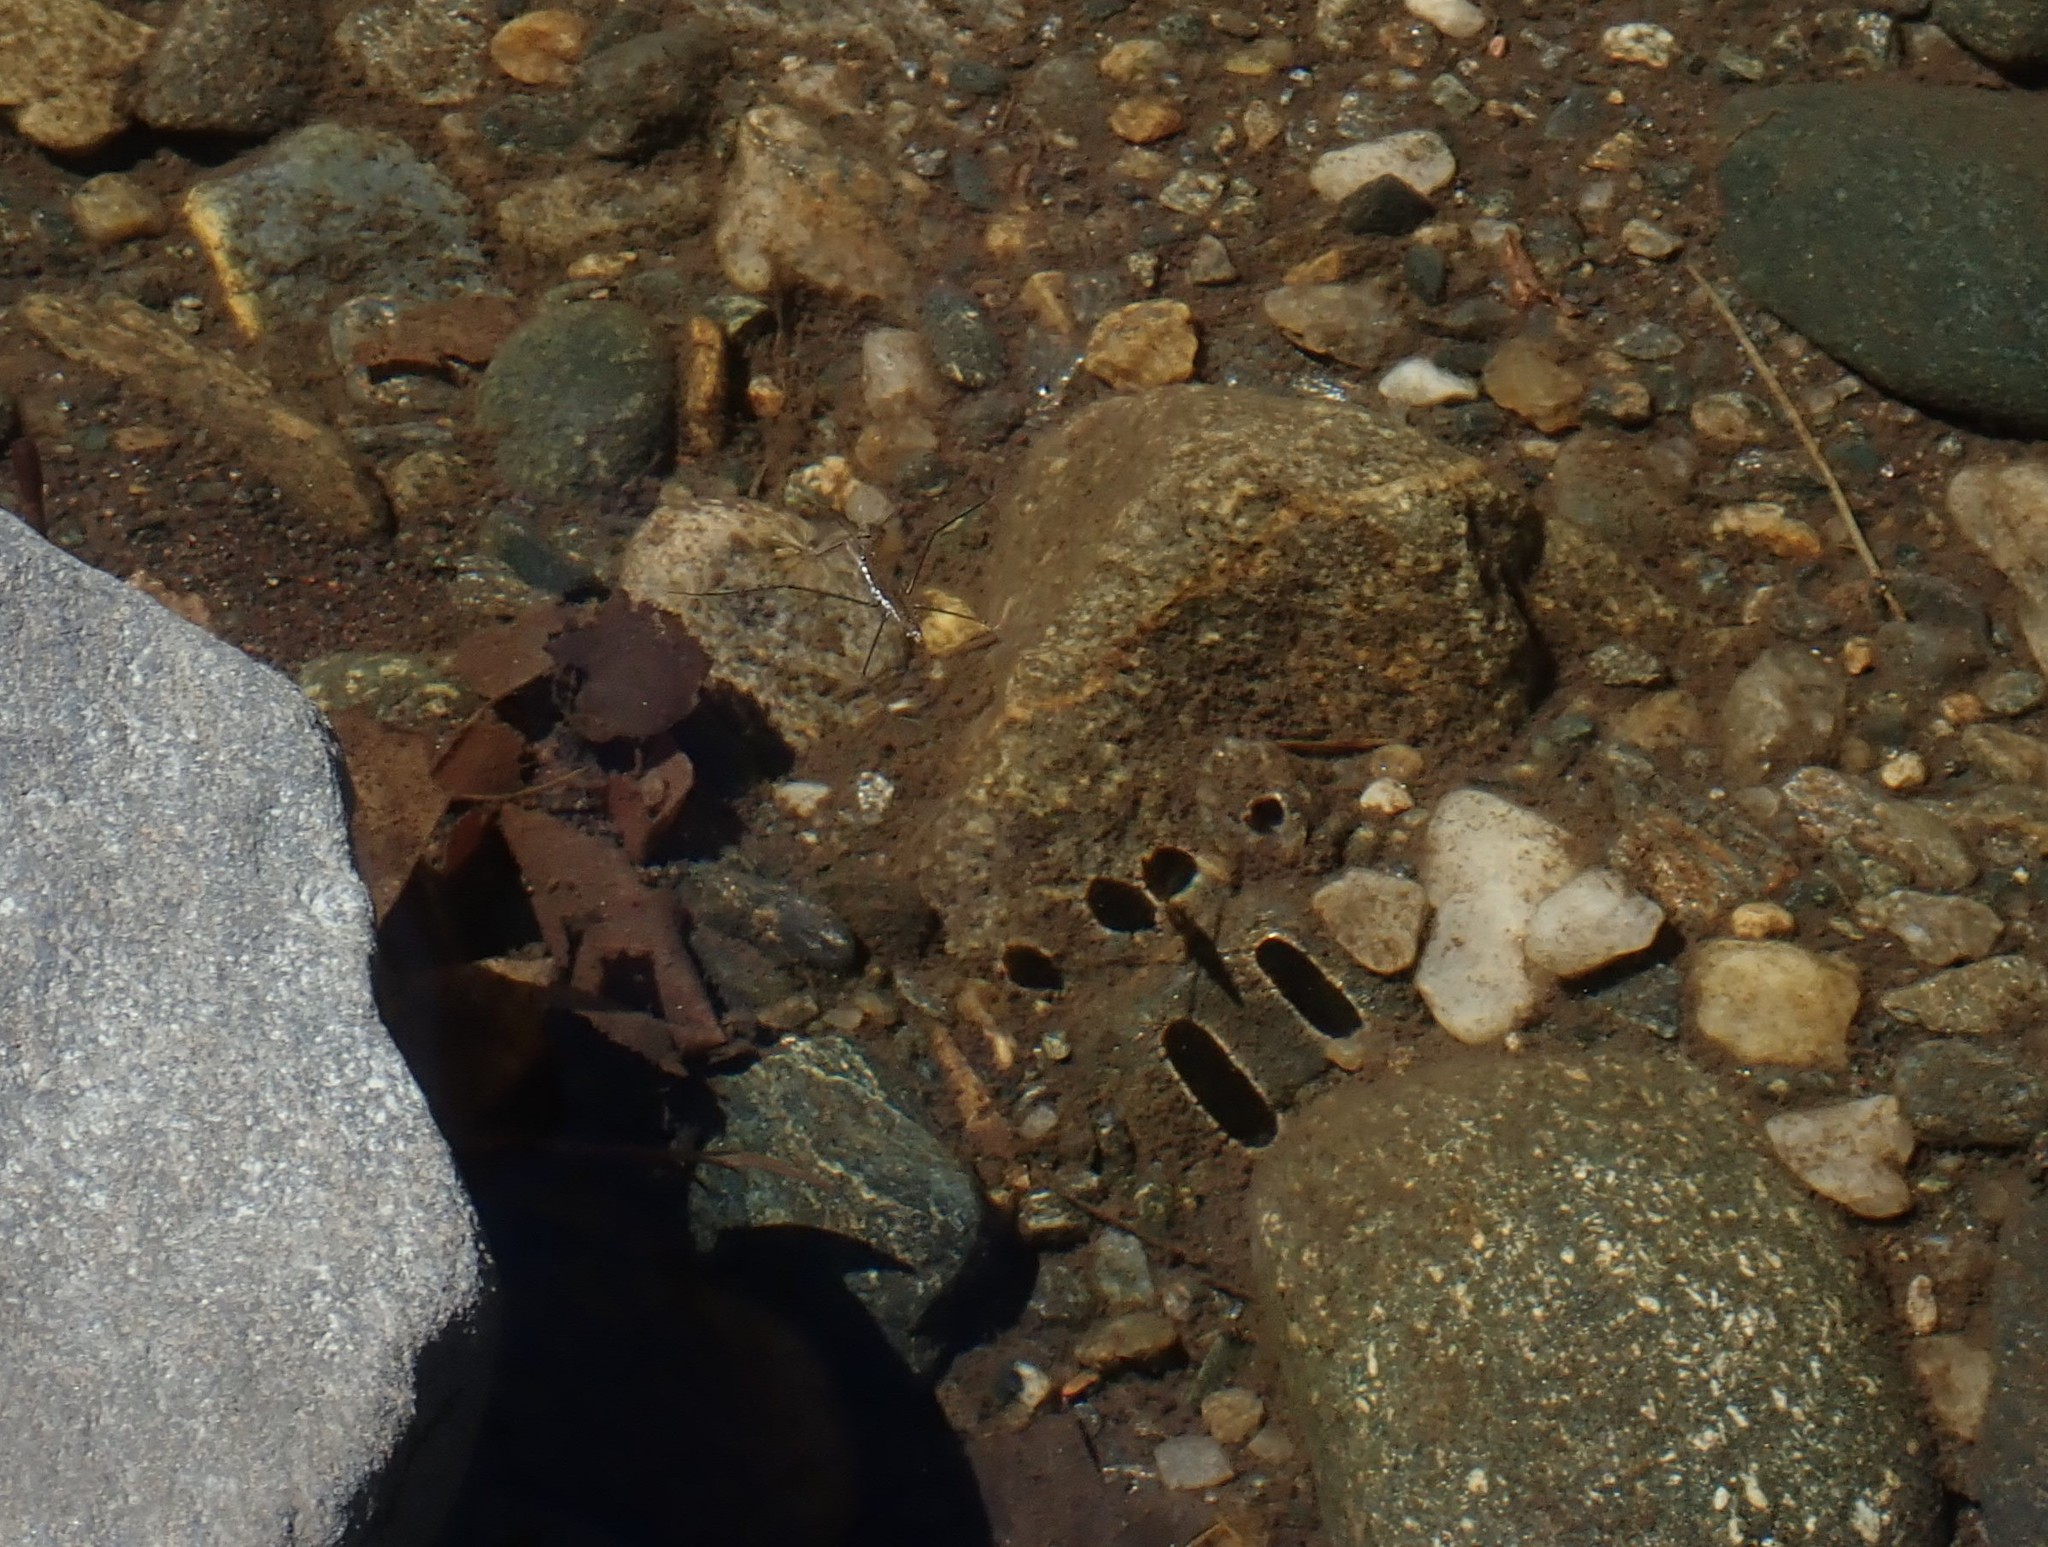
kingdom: Animalia
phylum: Arthropoda
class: Insecta
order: Hemiptera
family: Gerridae
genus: Aquarius
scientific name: Aquarius remigis
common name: Common water strider
